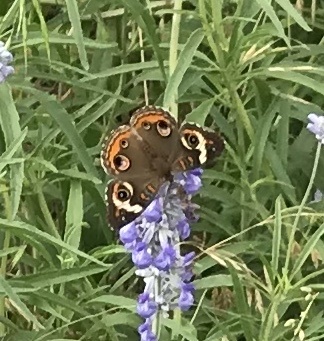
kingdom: Animalia
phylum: Arthropoda
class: Insecta
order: Lepidoptera
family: Nymphalidae
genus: Junonia
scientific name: Junonia coenia
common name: Common buckeye
